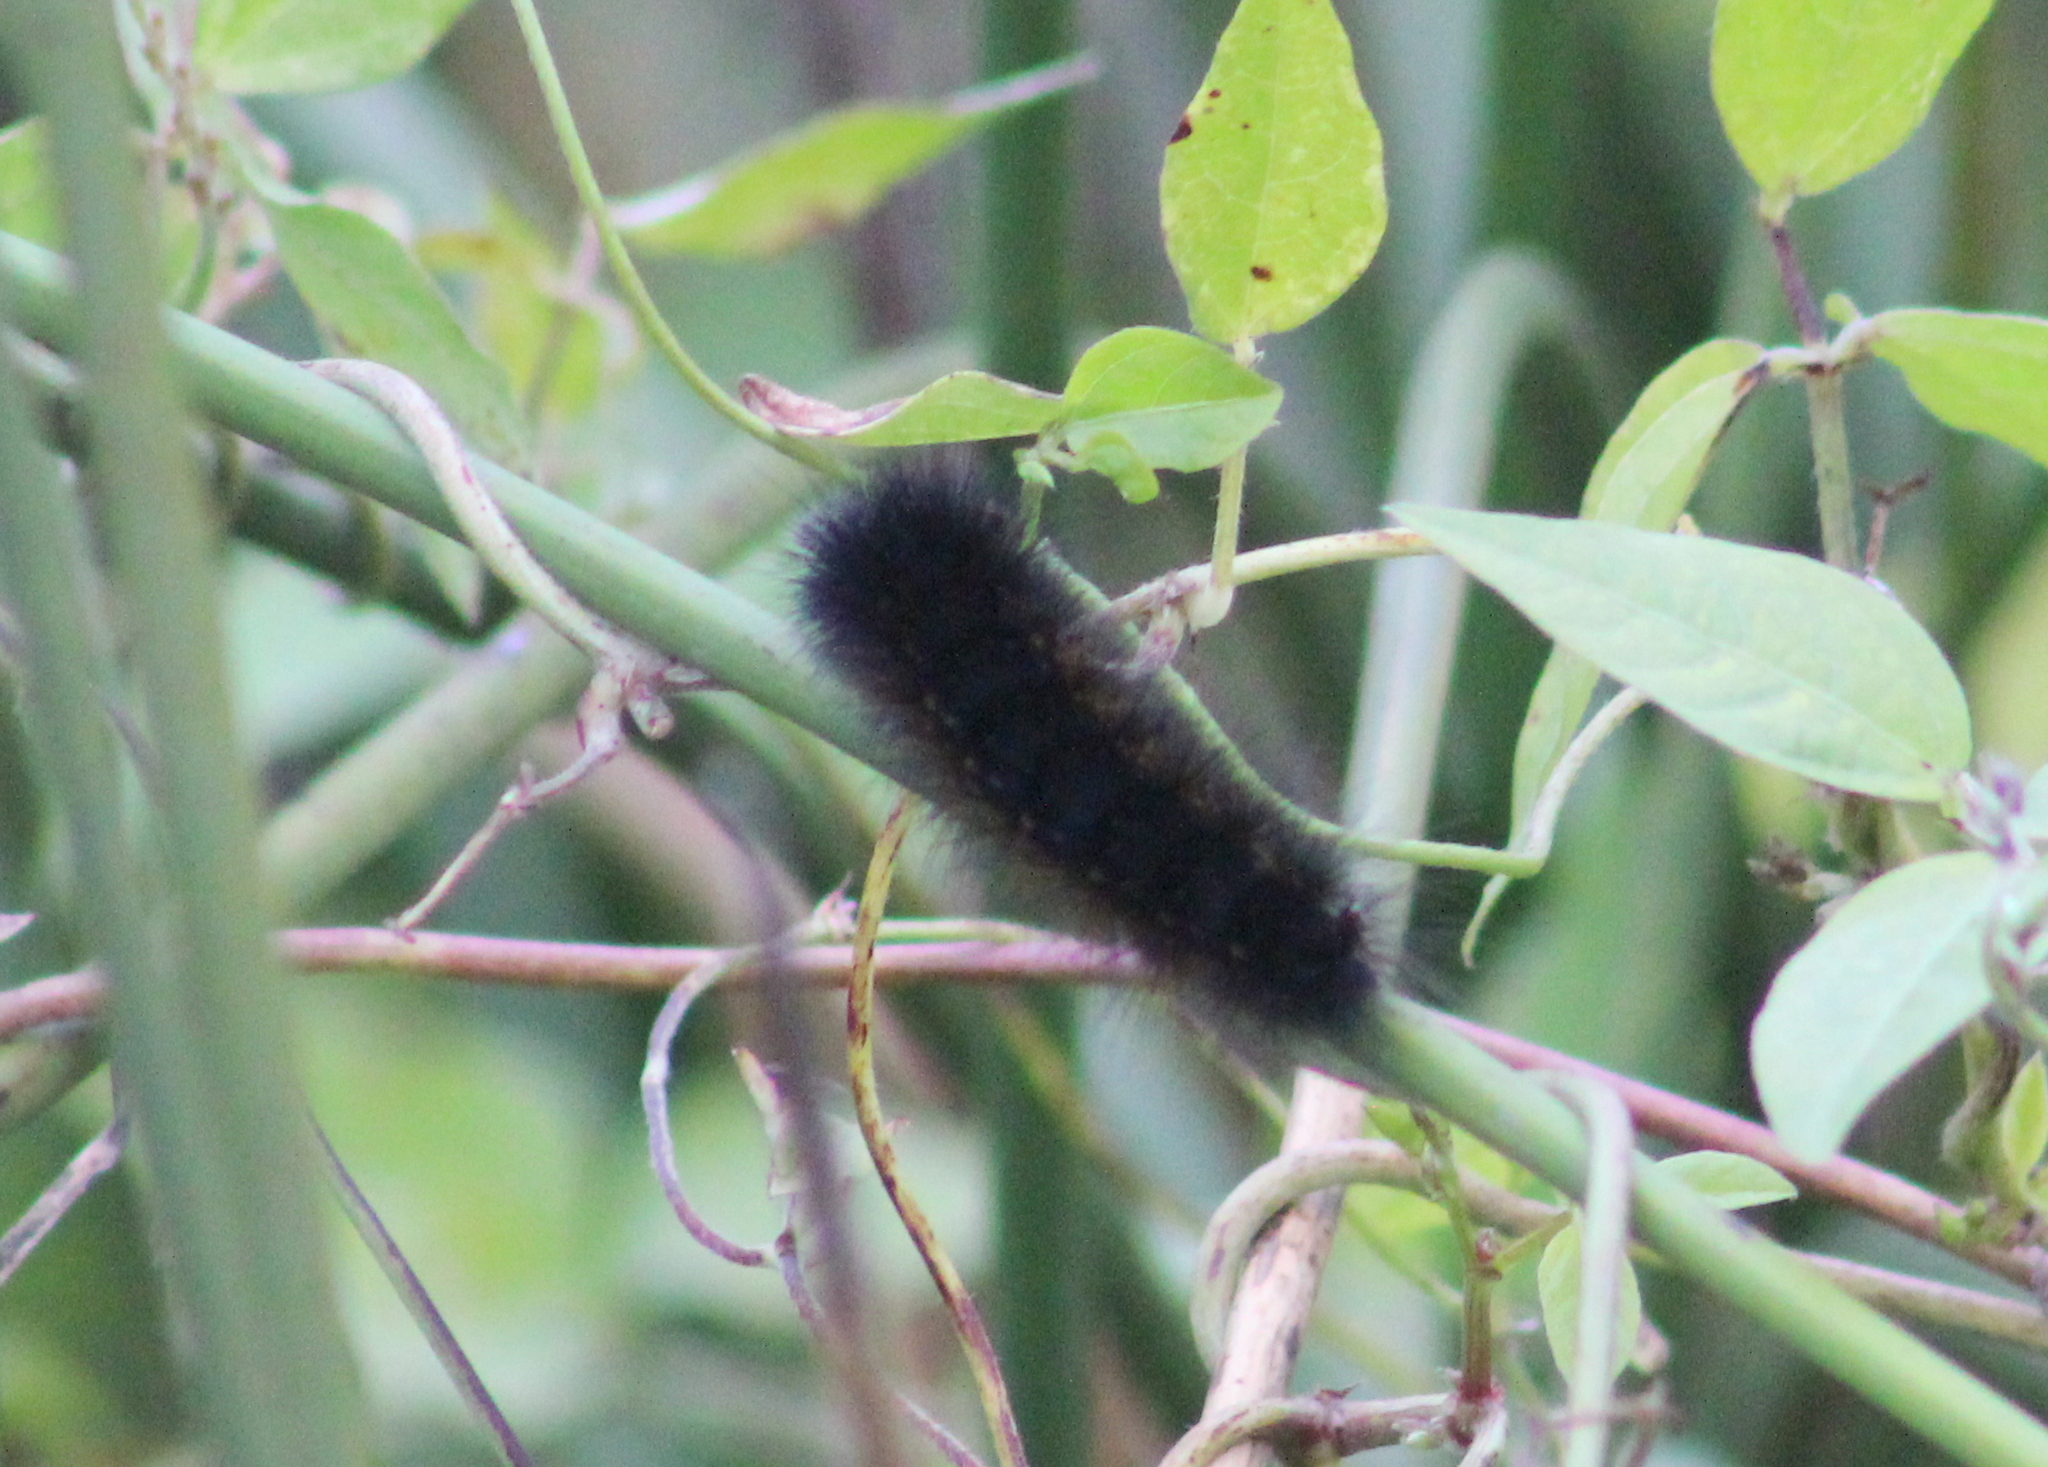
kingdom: Animalia
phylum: Arthropoda
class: Insecta
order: Lepidoptera
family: Erebidae
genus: Hypercompe
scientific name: Hypercompe scribonia
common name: Giant leopard moth
